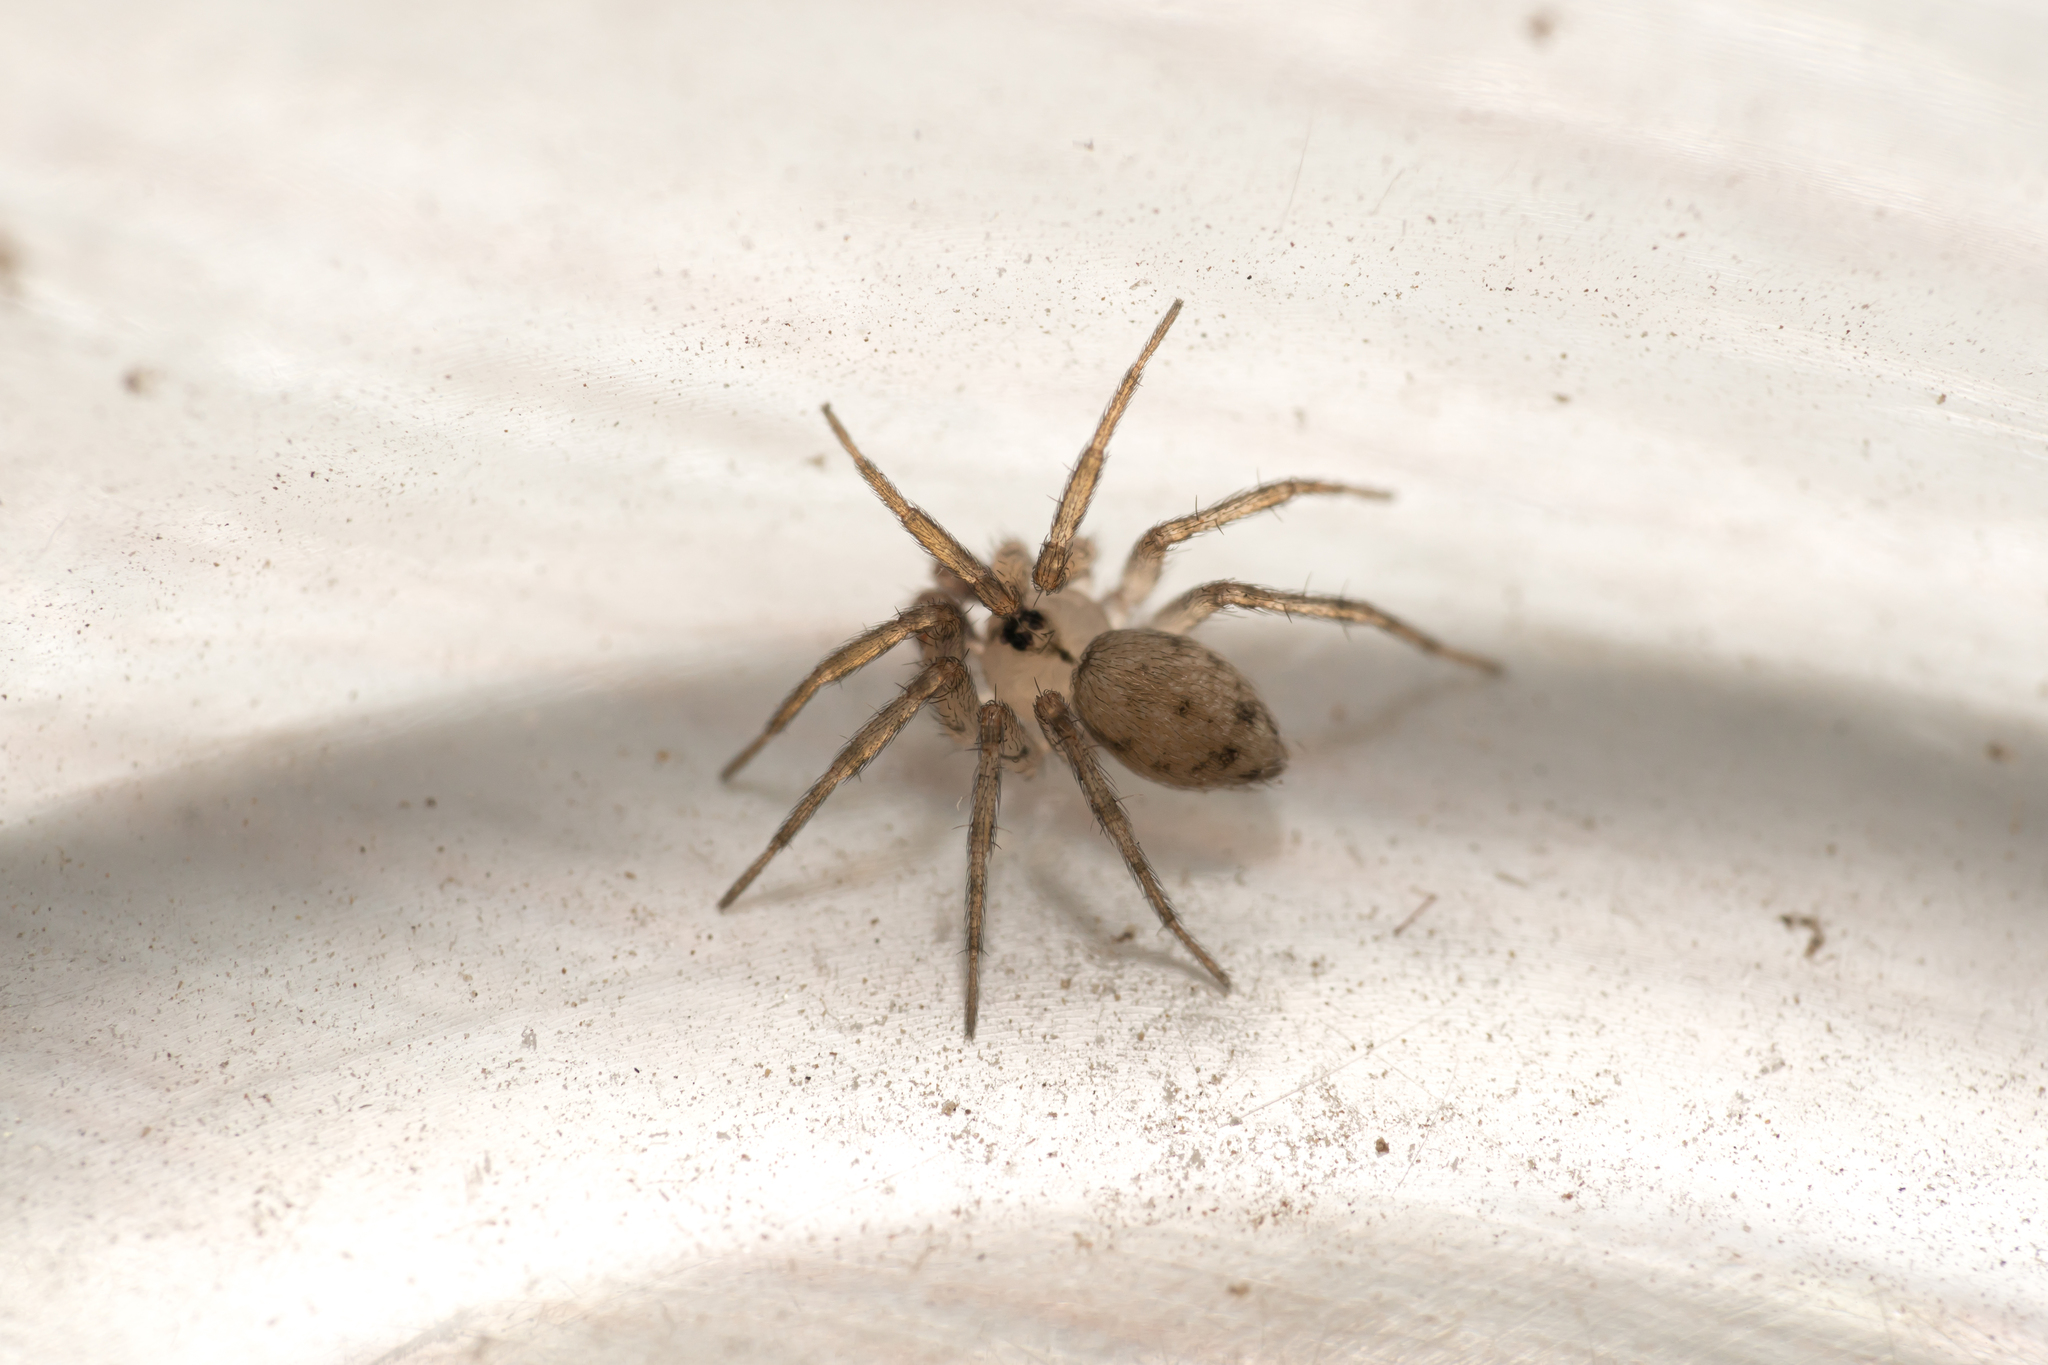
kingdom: Animalia
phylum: Arthropoda
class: Arachnida
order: Araneae
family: Oecobiidae
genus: Oecobius
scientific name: Oecobius
